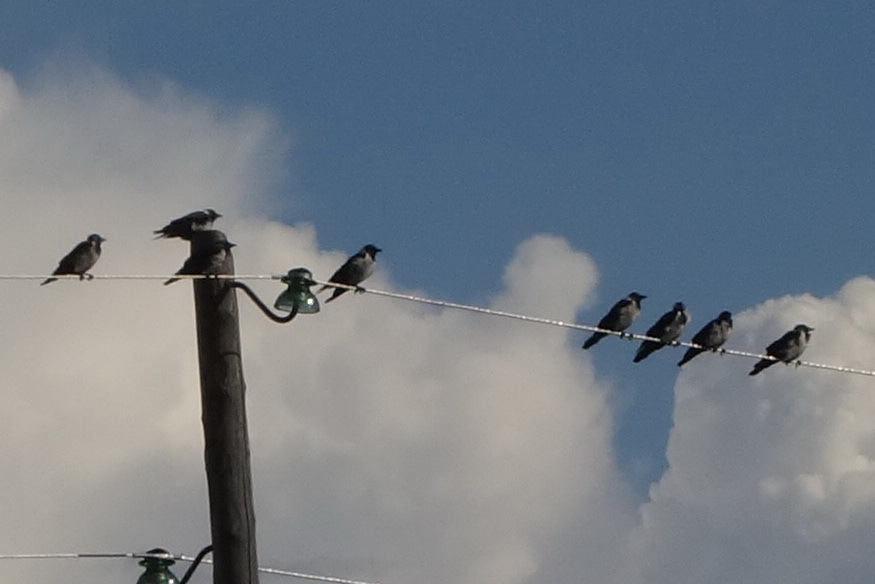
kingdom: Animalia
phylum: Chordata
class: Aves
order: Passeriformes
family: Corvidae
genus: Coloeus
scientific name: Coloeus dauuricus
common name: Daurian jackdaw
